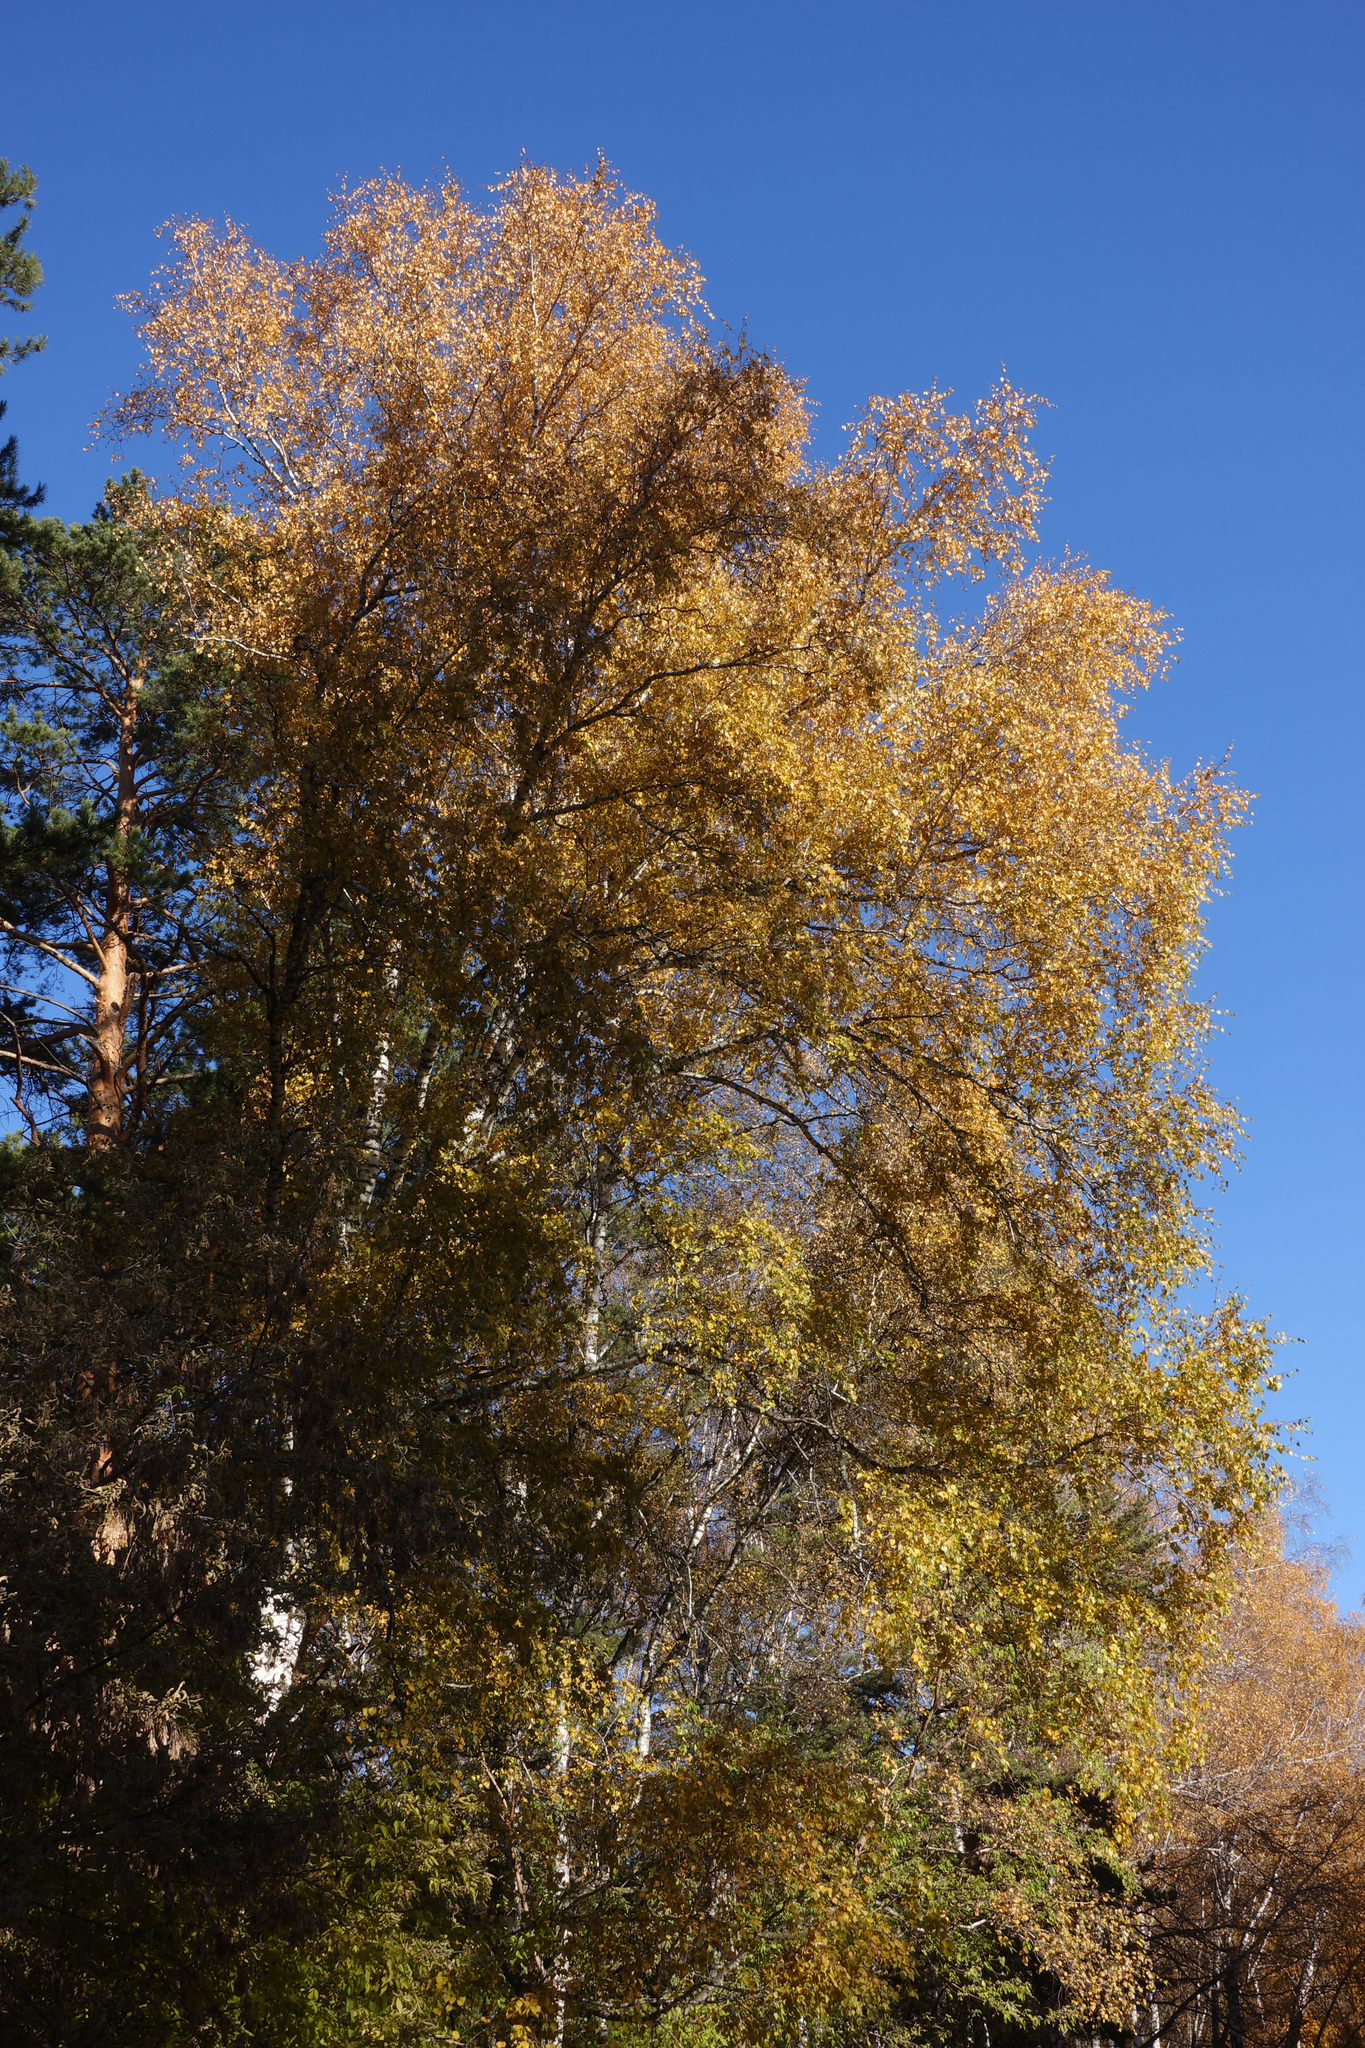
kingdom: Plantae
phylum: Tracheophyta
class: Magnoliopsida
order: Fagales
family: Betulaceae
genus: Betula
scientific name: Betula pendula
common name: Silver birch
